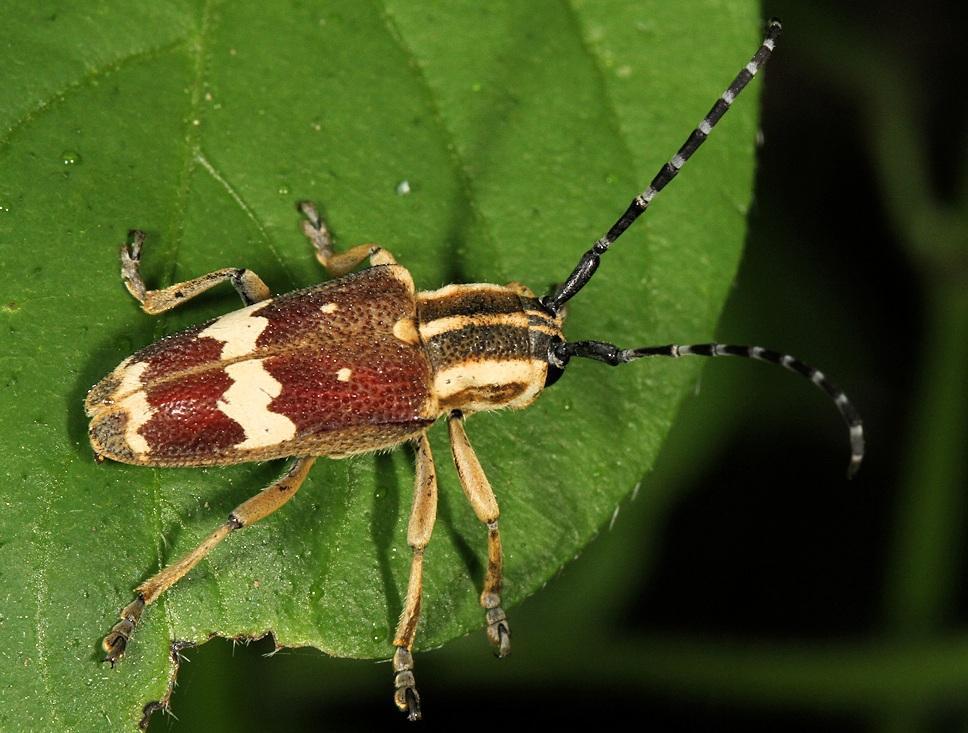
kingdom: Animalia
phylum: Arthropoda
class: Insecta
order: Coleoptera
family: Cerambycidae
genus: Glenea
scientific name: Glenea apicalis
